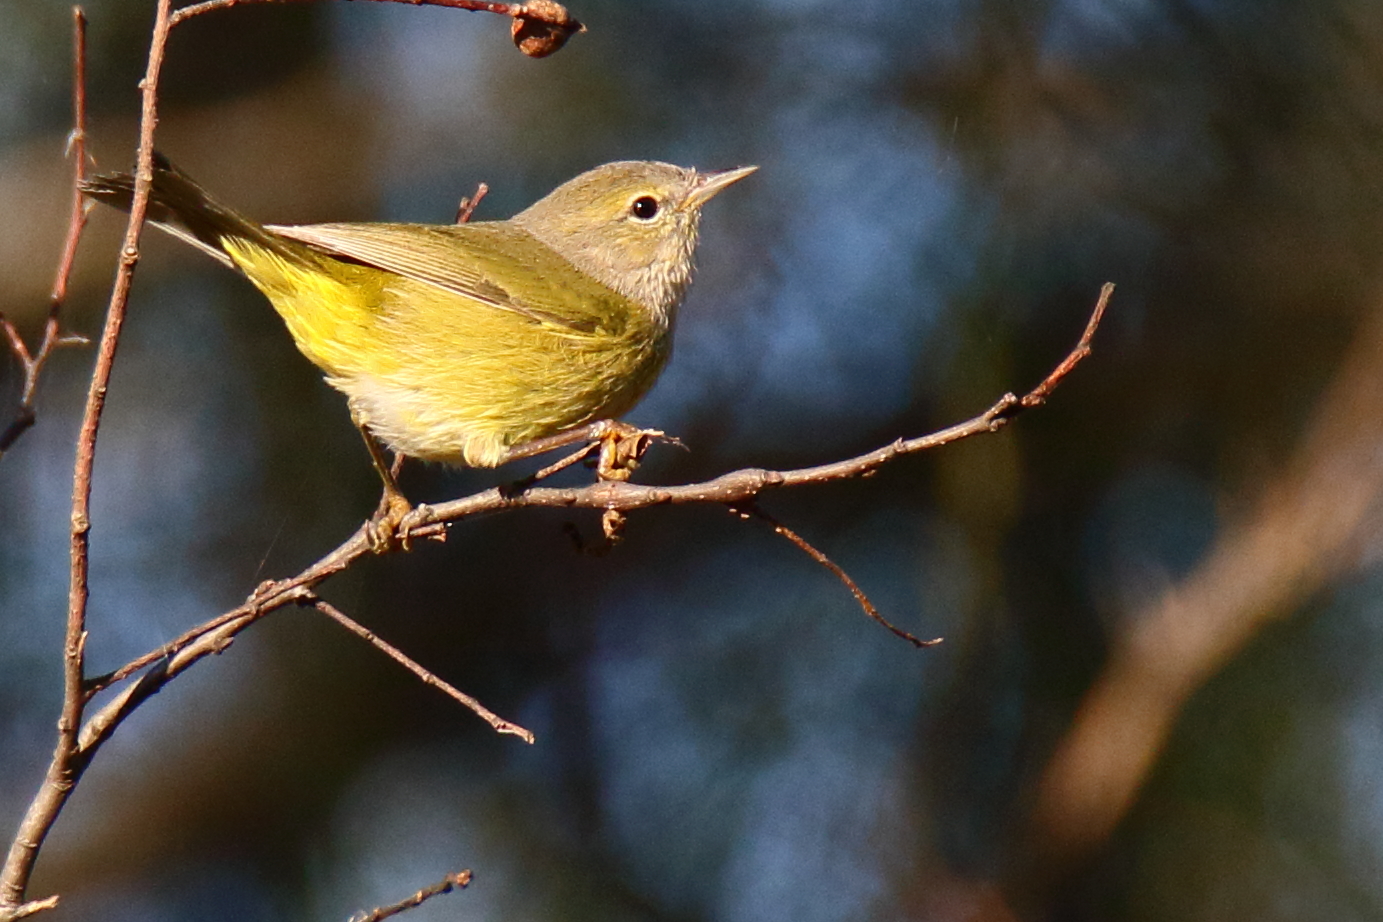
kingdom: Animalia
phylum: Chordata
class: Aves
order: Passeriformes
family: Parulidae
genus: Leiothlypis
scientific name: Leiothlypis celata
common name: Orange-crowned warbler
